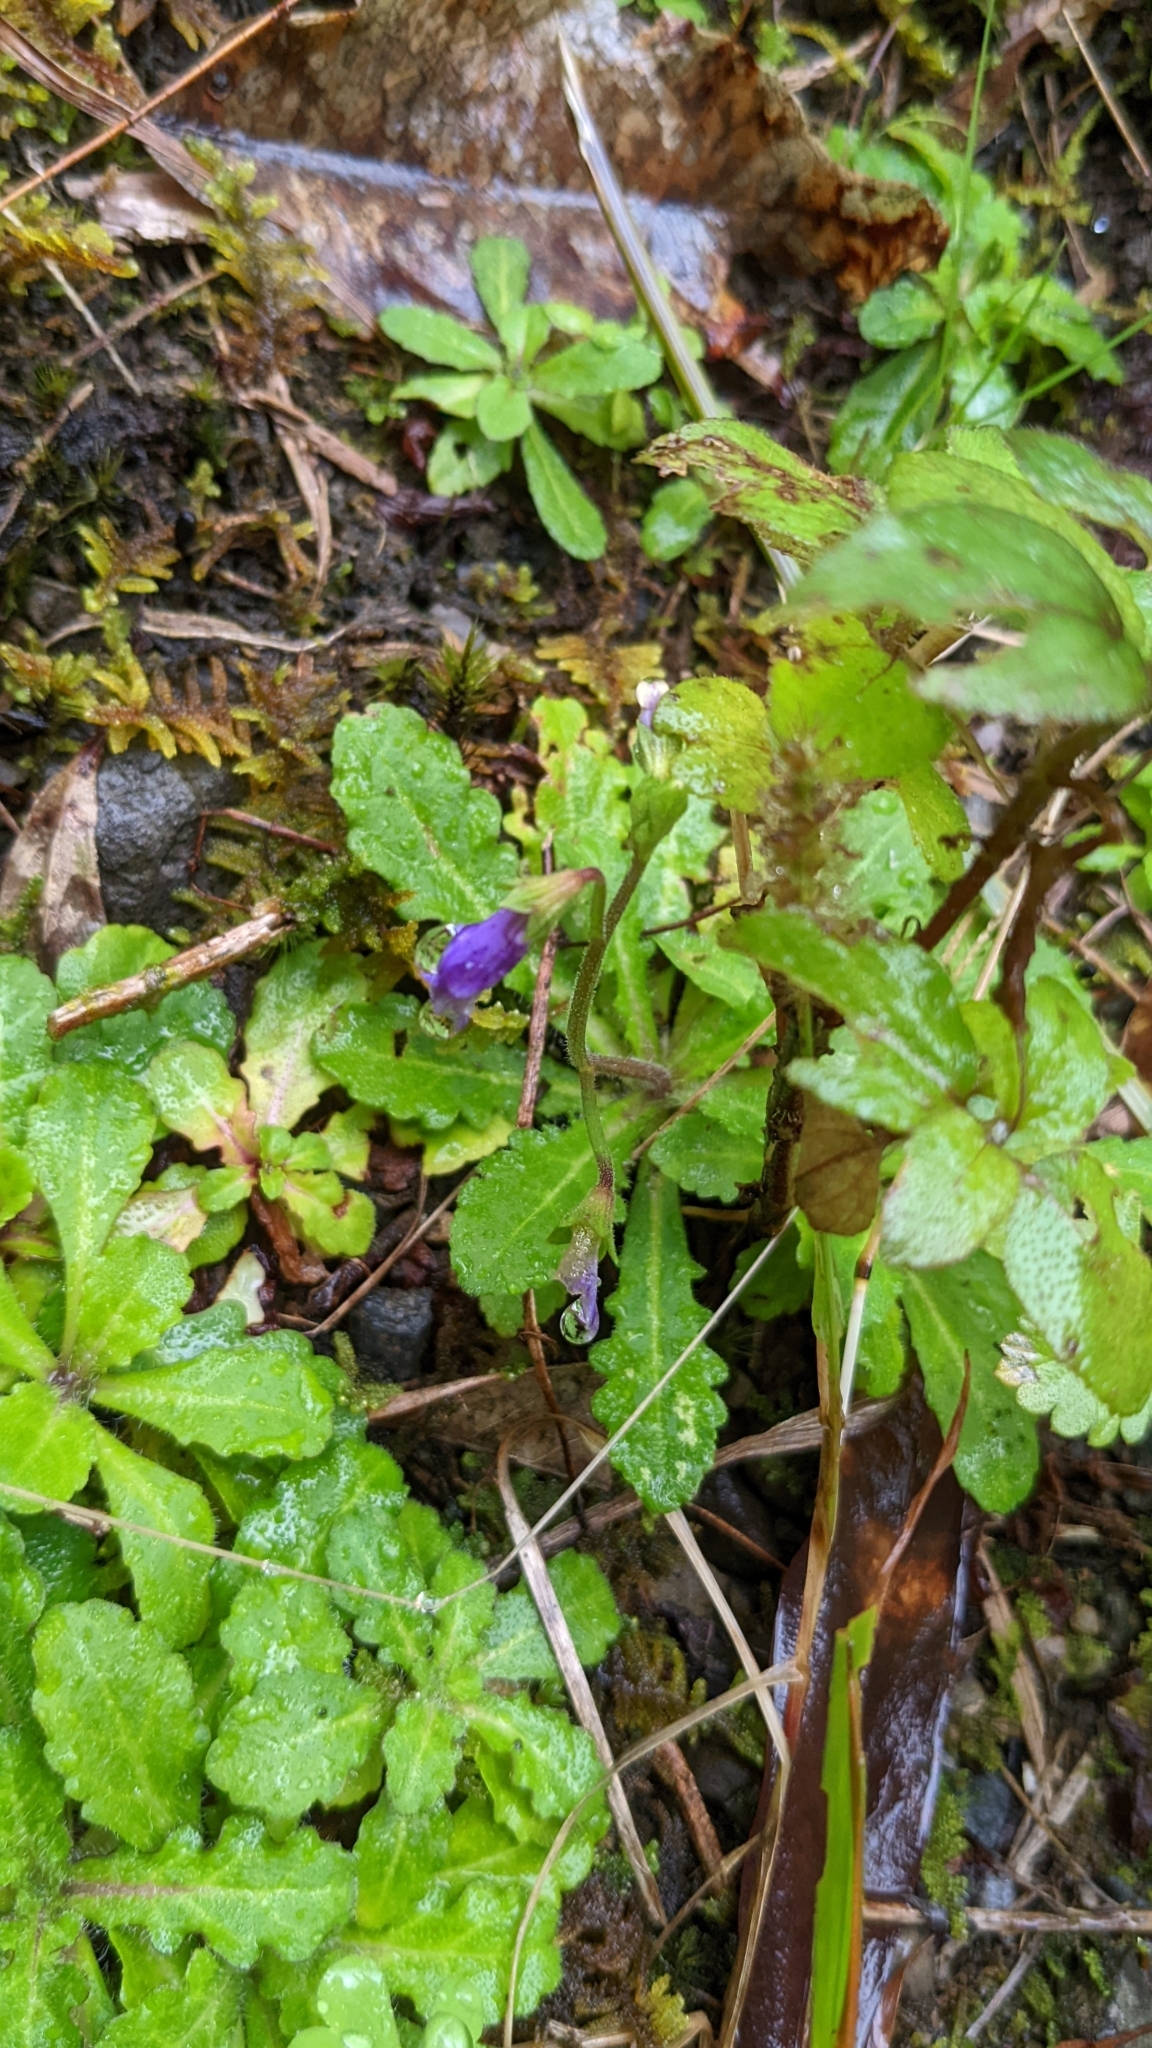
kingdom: Plantae
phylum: Tracheophyta
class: Magnoliopsida
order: Lamiales
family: Mazaceae
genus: Mazus
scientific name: Mazus fauriei
